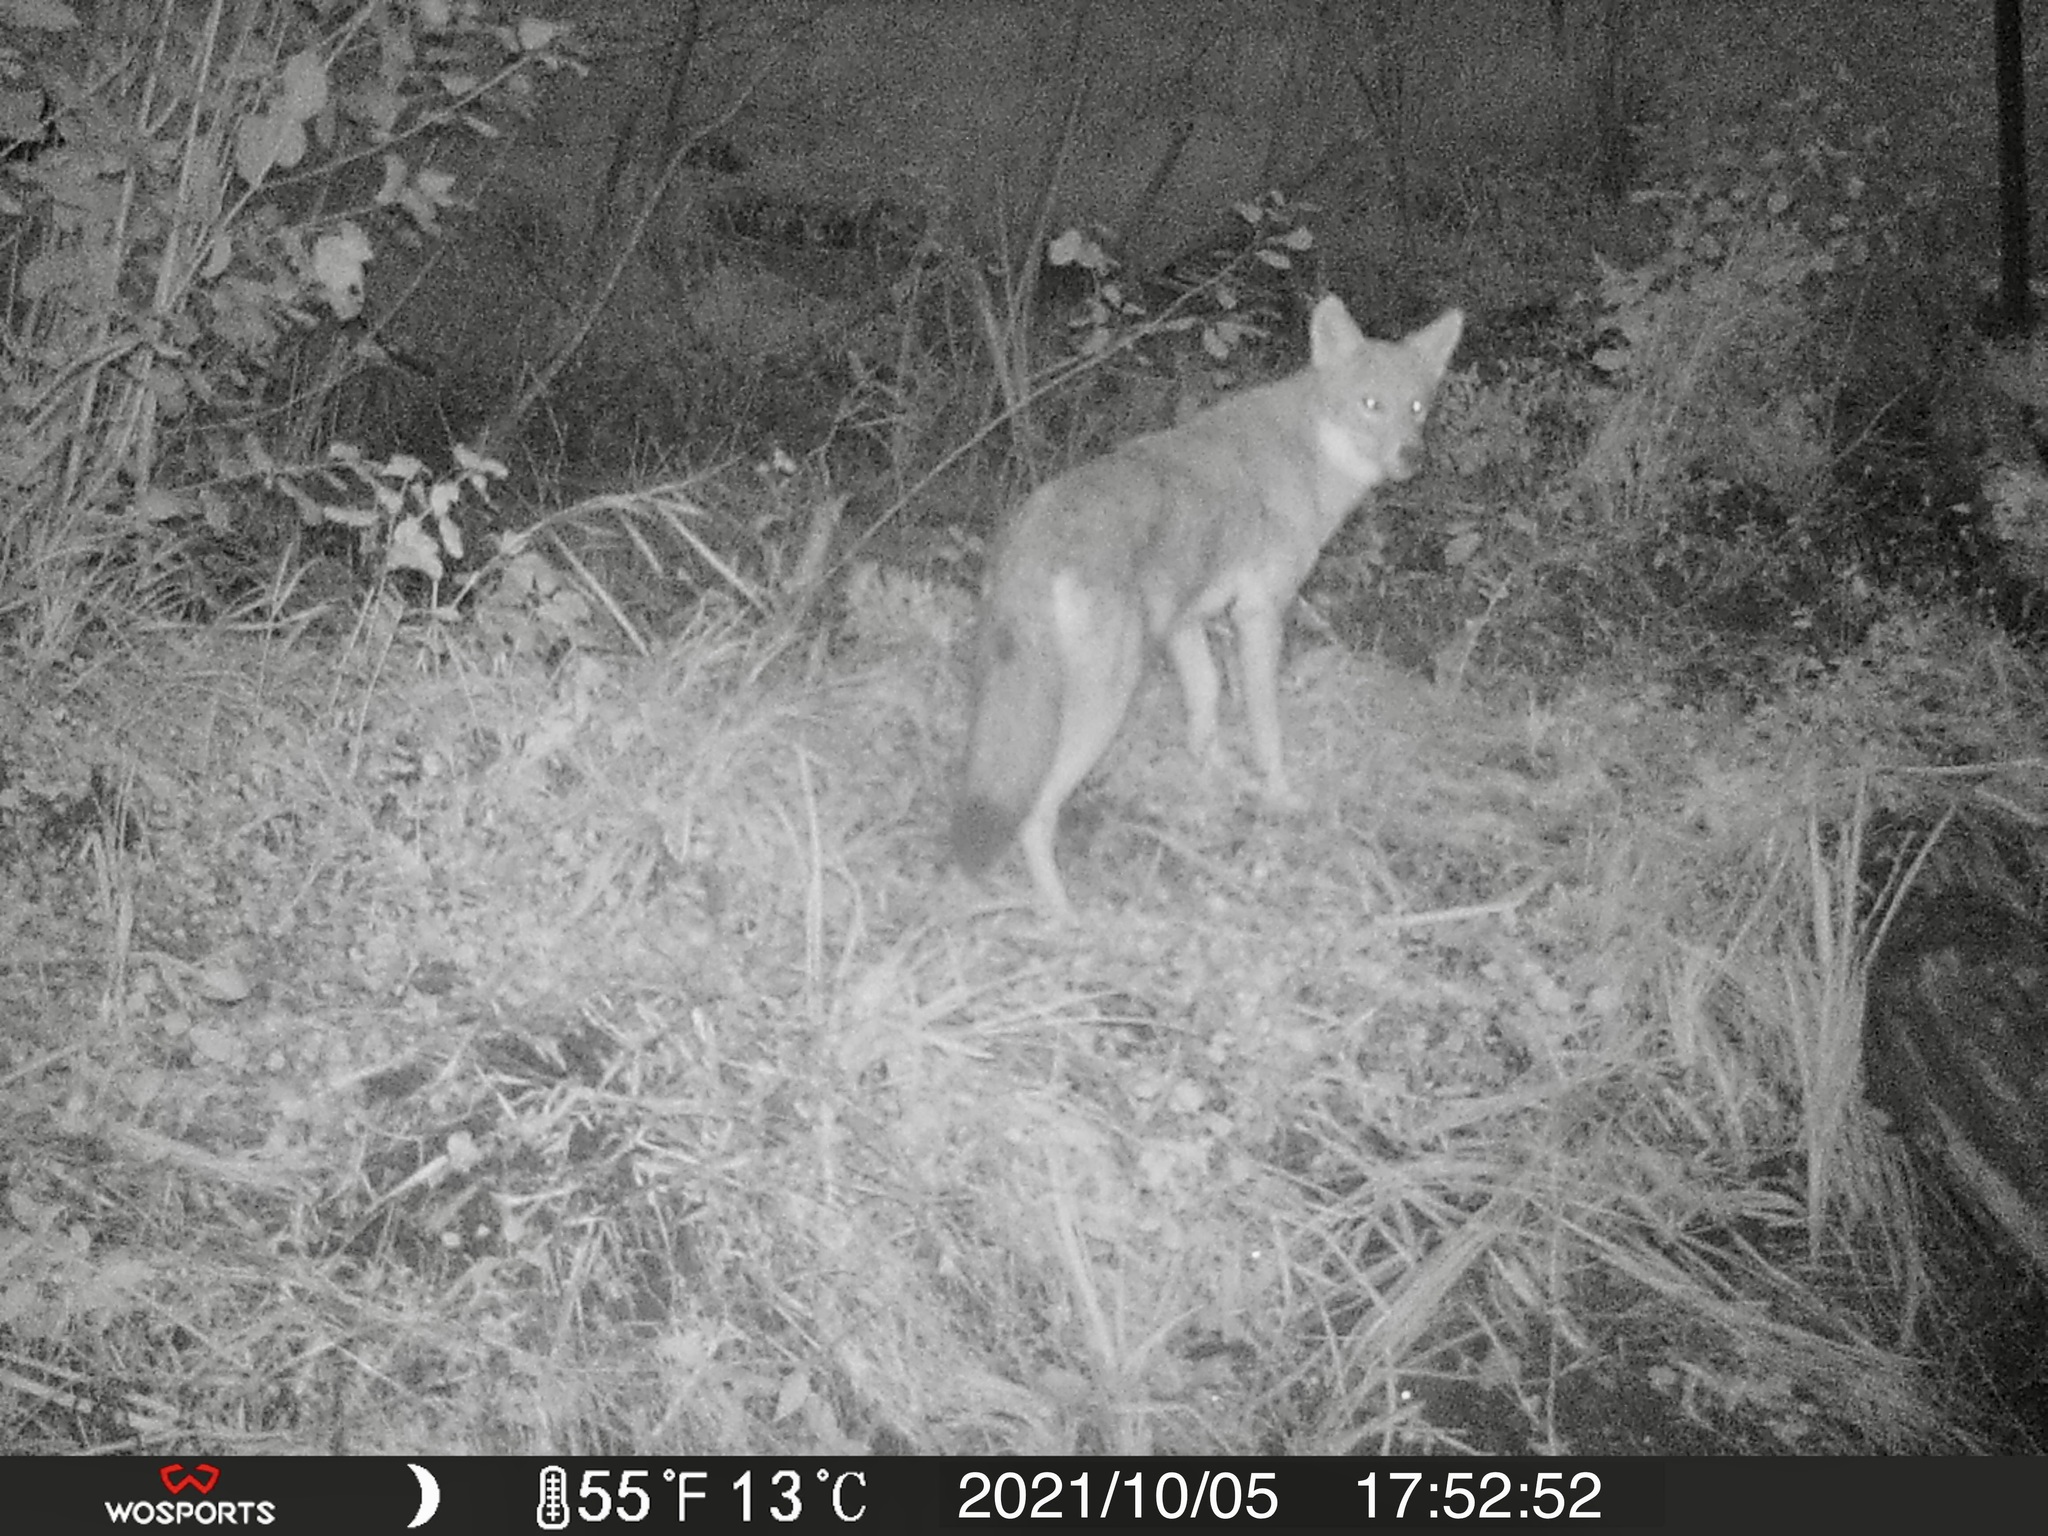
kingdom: Animalia
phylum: Chordata
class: Mammalia
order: Carnivora
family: Canidae
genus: Canis
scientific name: Canis latrans
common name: Coyote
